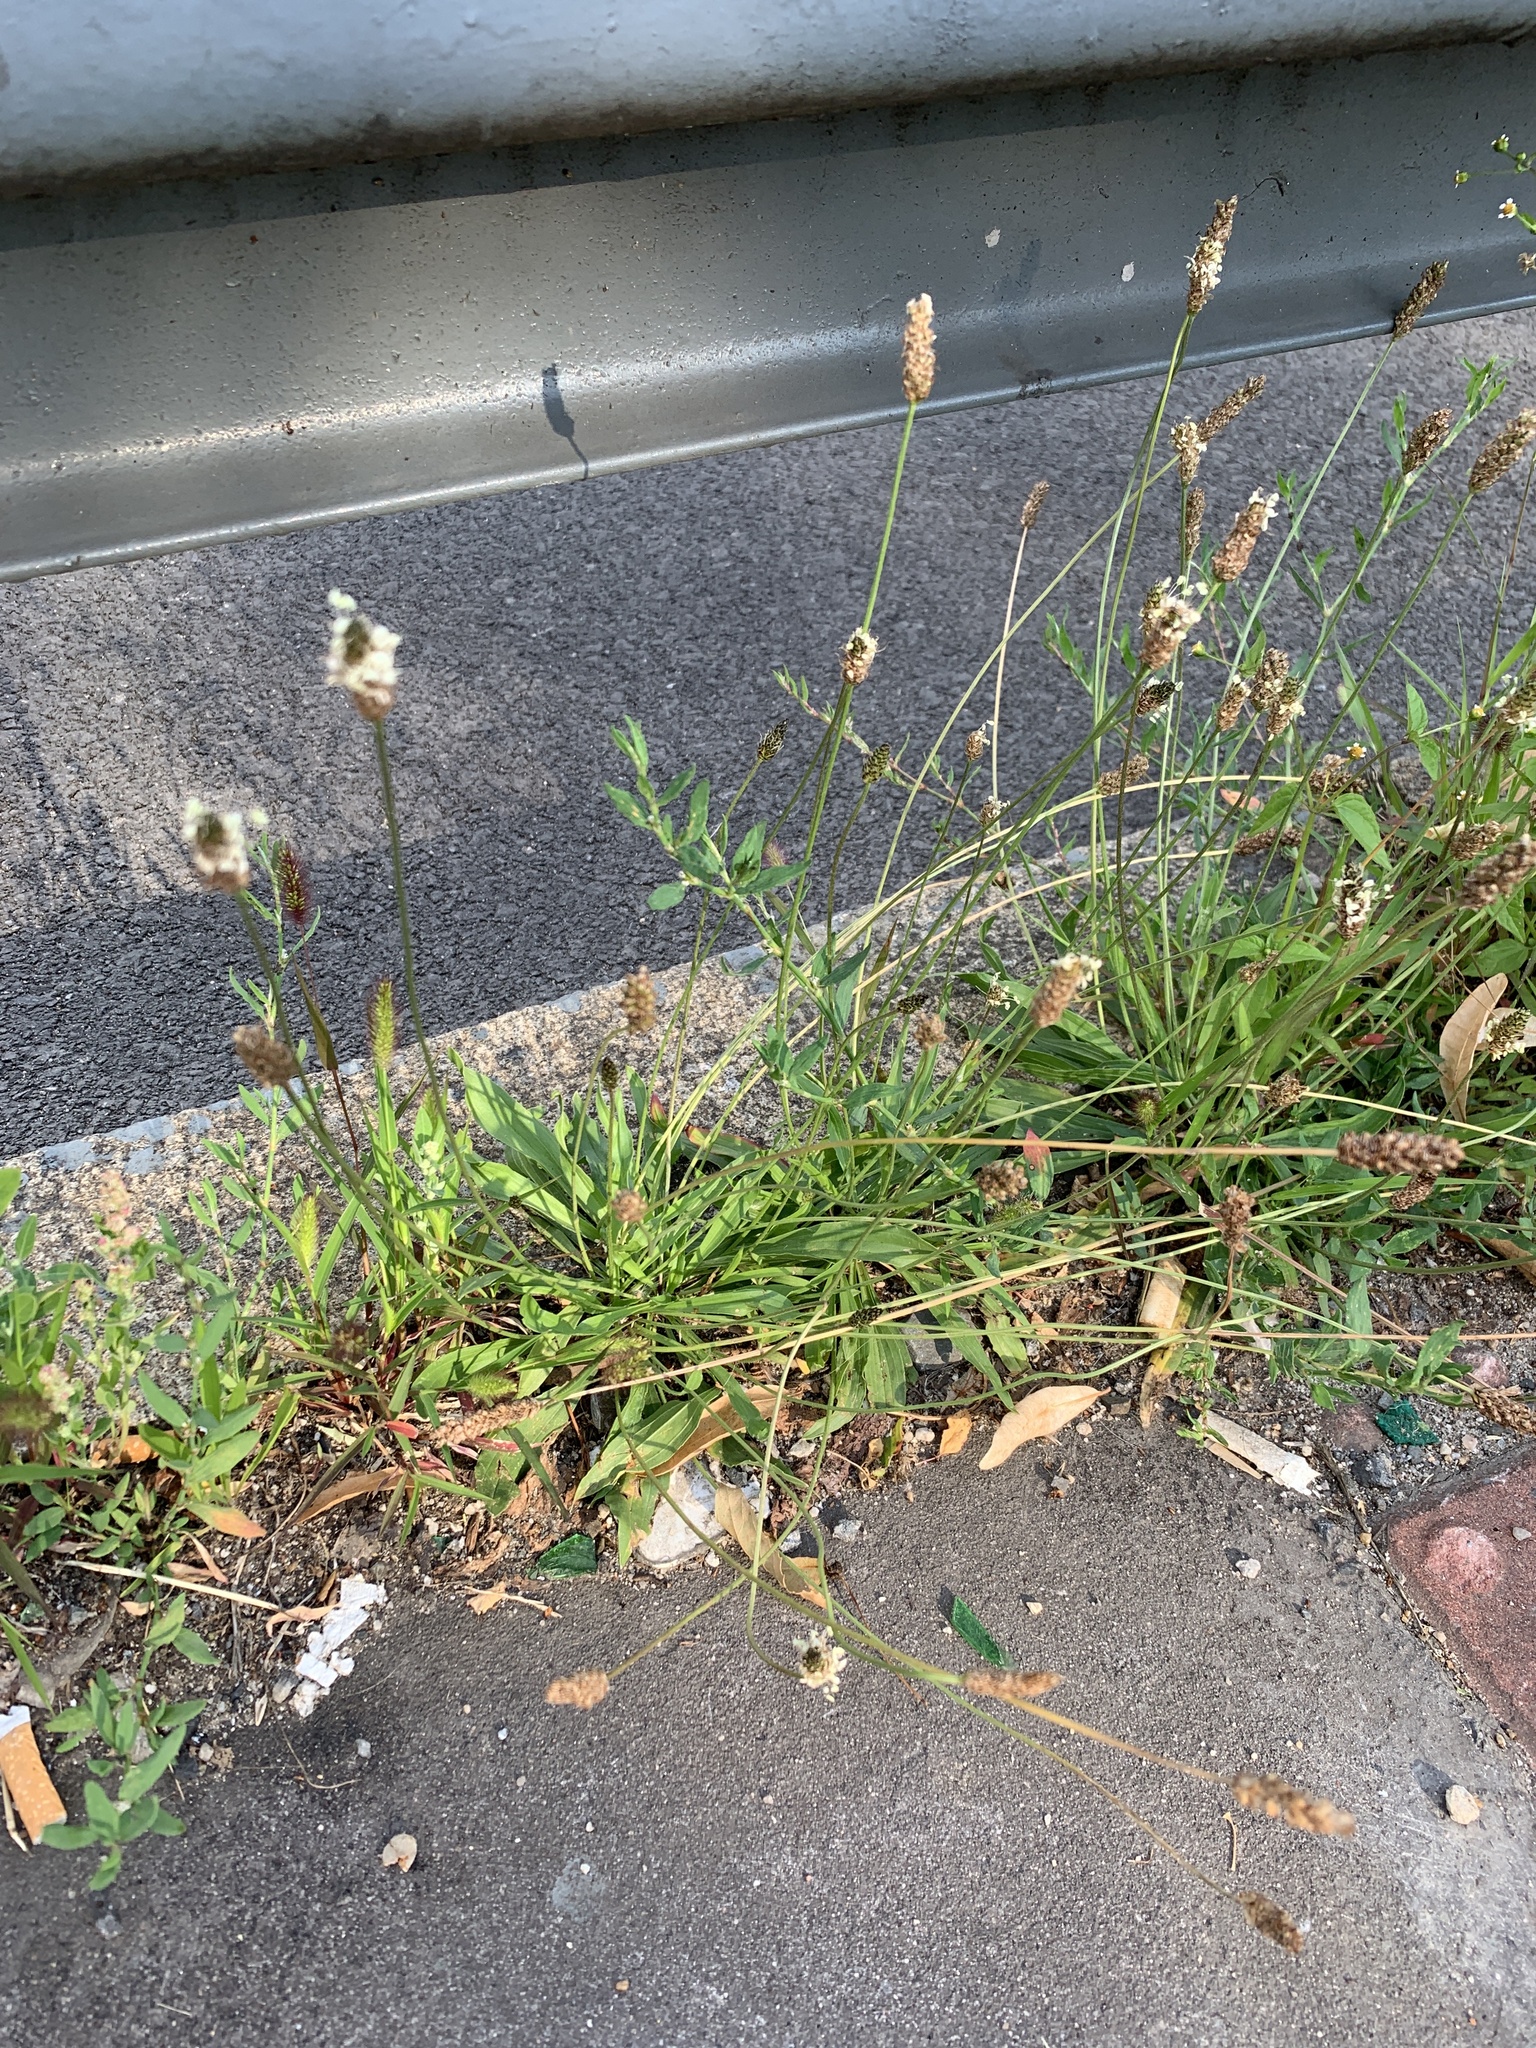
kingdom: Plantae
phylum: Tracheophyta
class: Magnoliopsida
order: Lamiales
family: Plantaginaceae
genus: Plantago
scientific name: Plantago lanceolata
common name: Ribwort plantain
